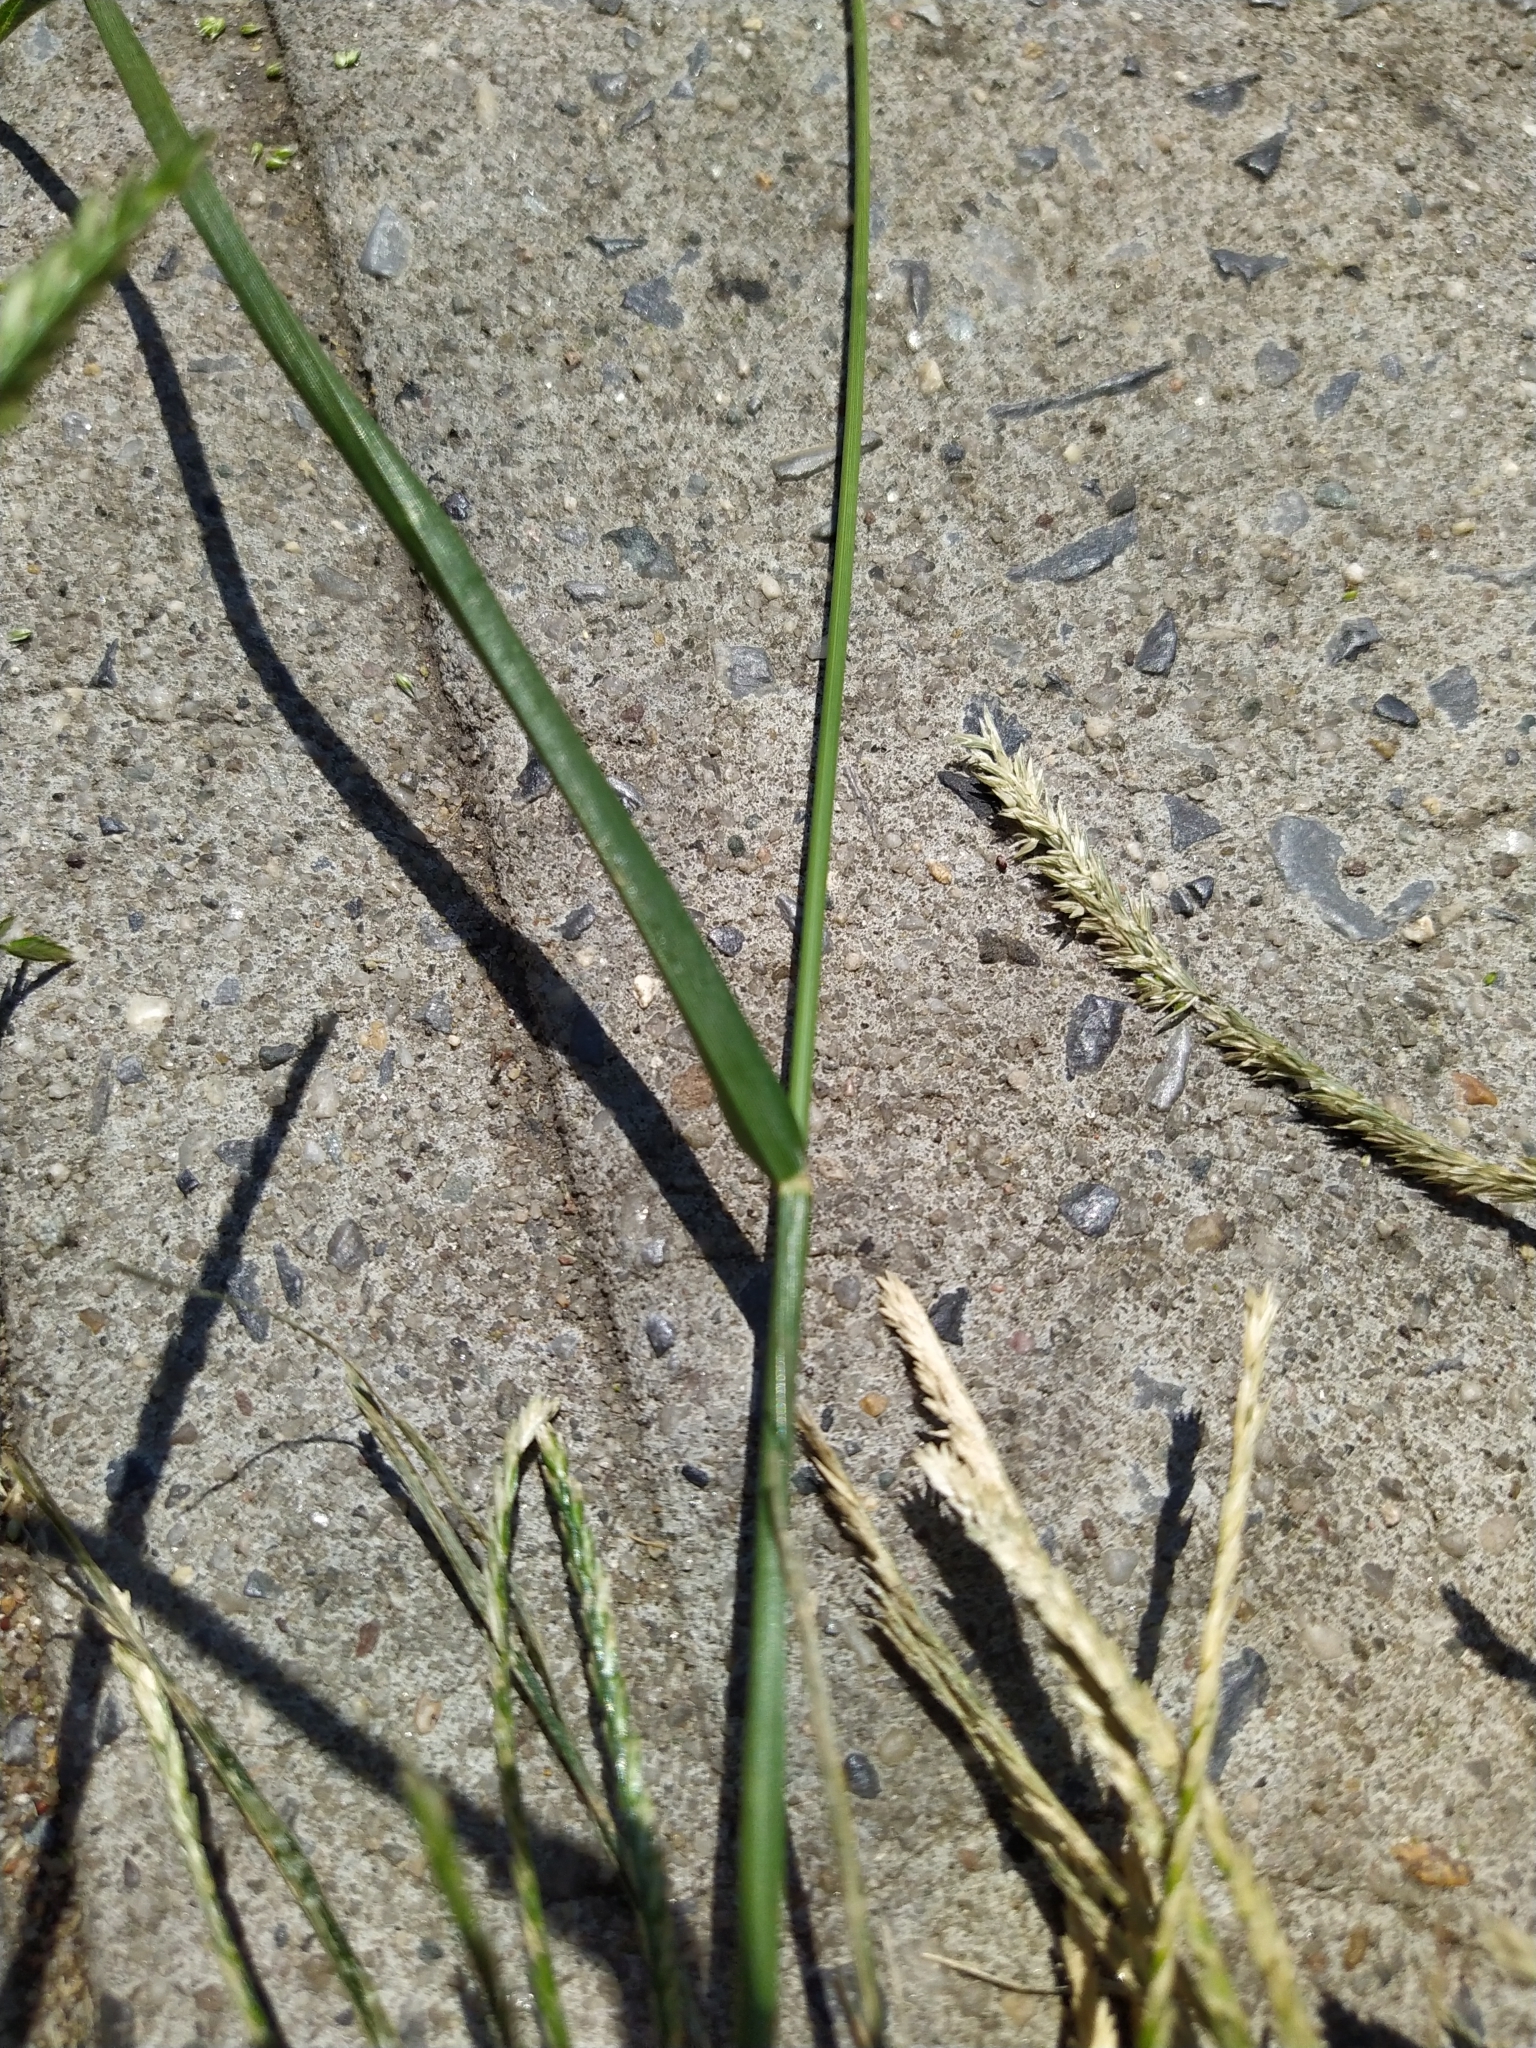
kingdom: Plantae
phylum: Tracheophyta
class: Liliopsida
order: Poales
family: Poaceae
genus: Eleusine
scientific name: Eleusine indica
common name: Yard-grass
